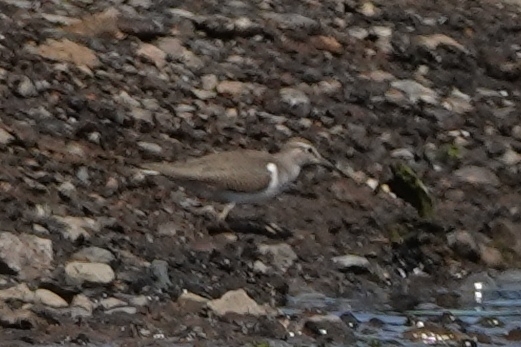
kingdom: Animalia
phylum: Chordata
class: Aves
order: Charadriiformes
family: Scolopacidae
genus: Actitis
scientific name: Actitis hypoleucos
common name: Common sandpiper
